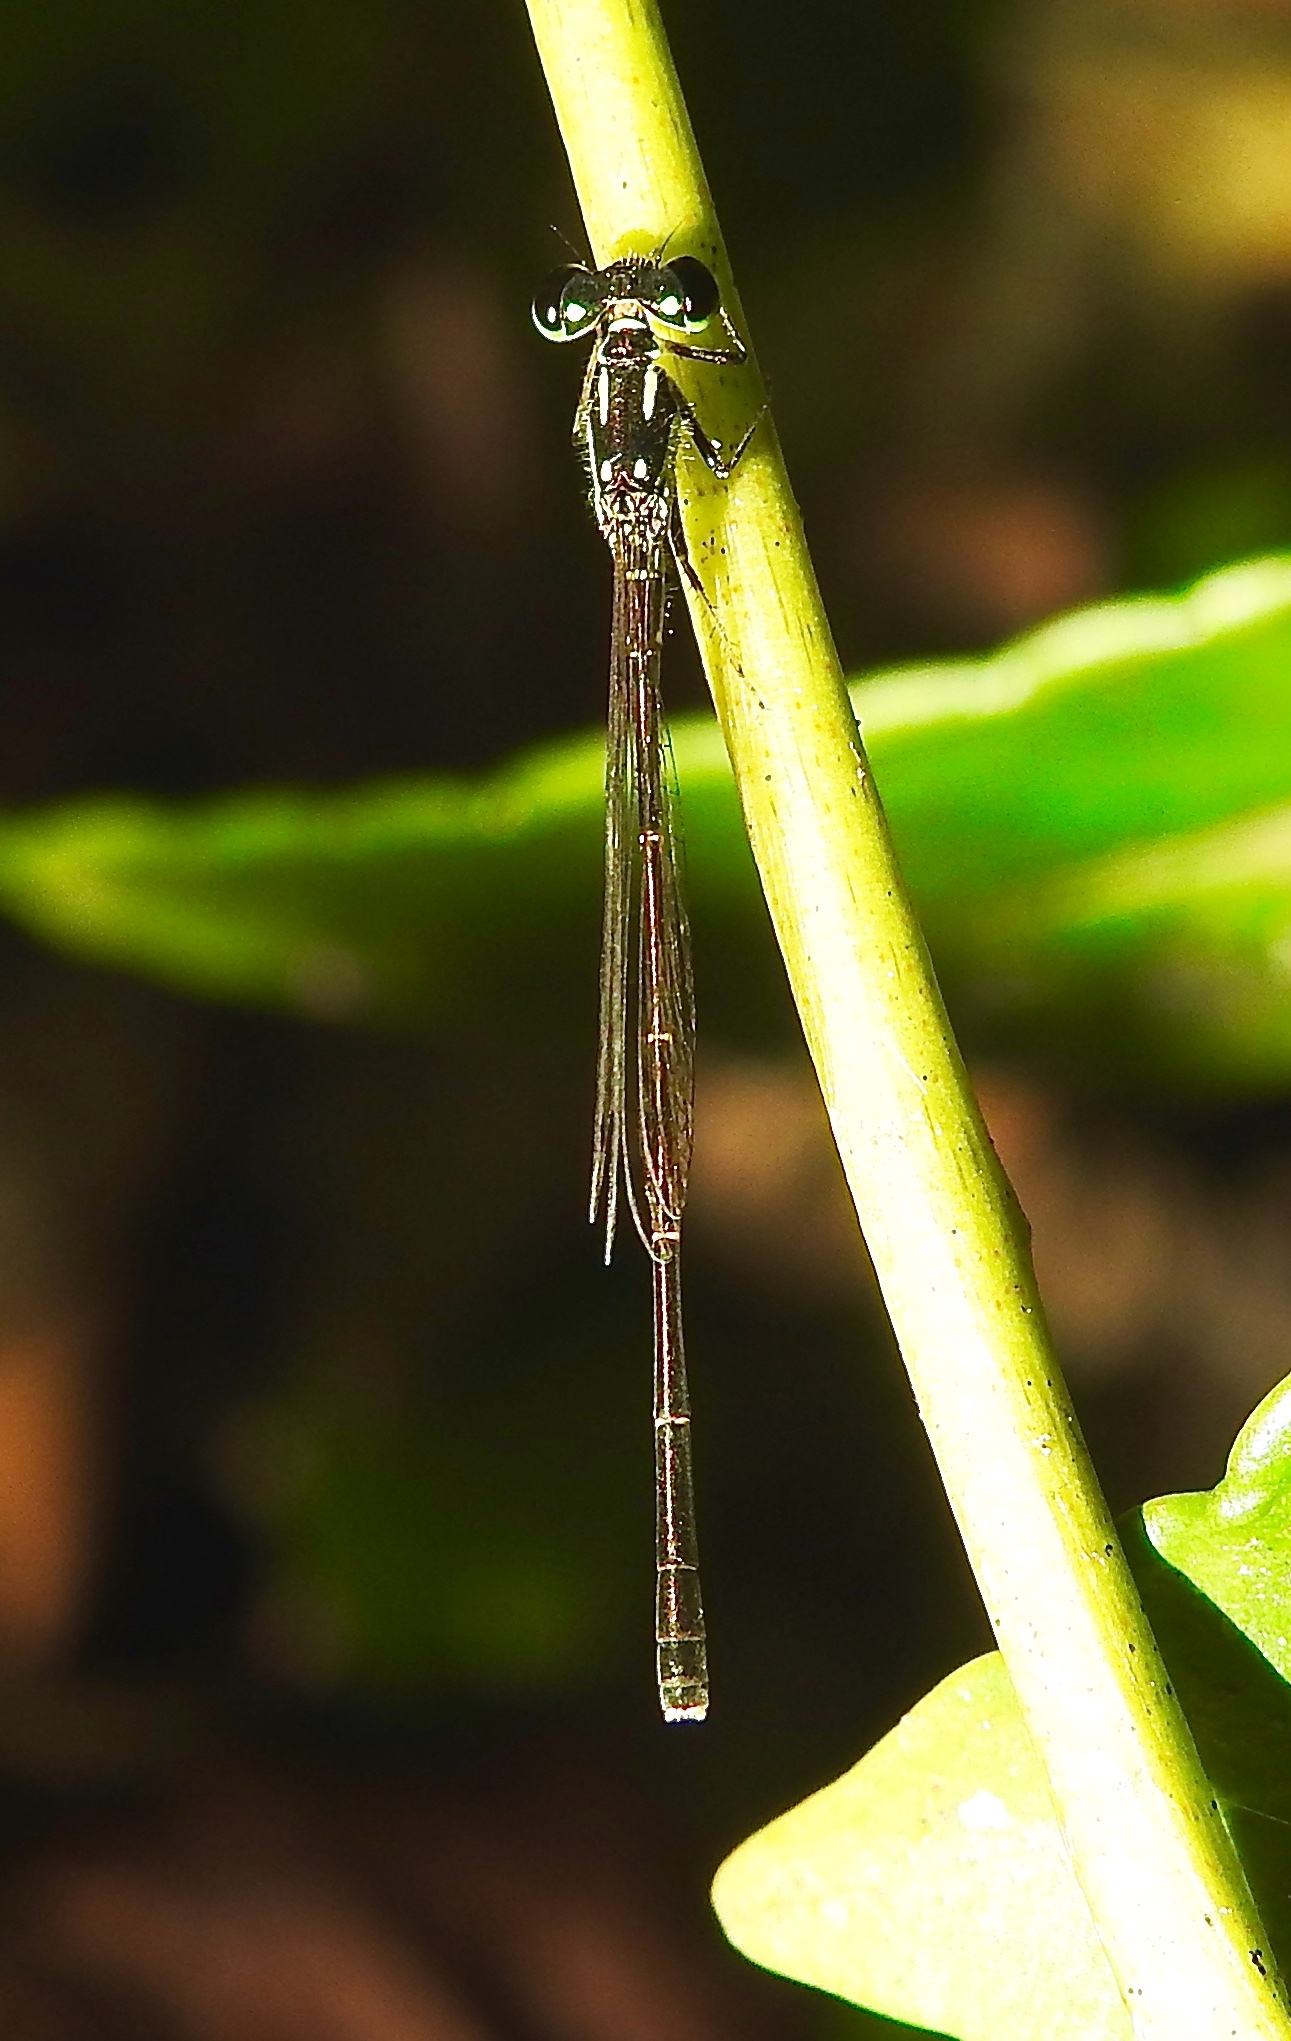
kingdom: Animalia
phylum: Arthropoda
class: Insecta
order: Odonata
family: Coenagrionidae
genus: Ischnura
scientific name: Ischnura posita
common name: Fragile forktail
